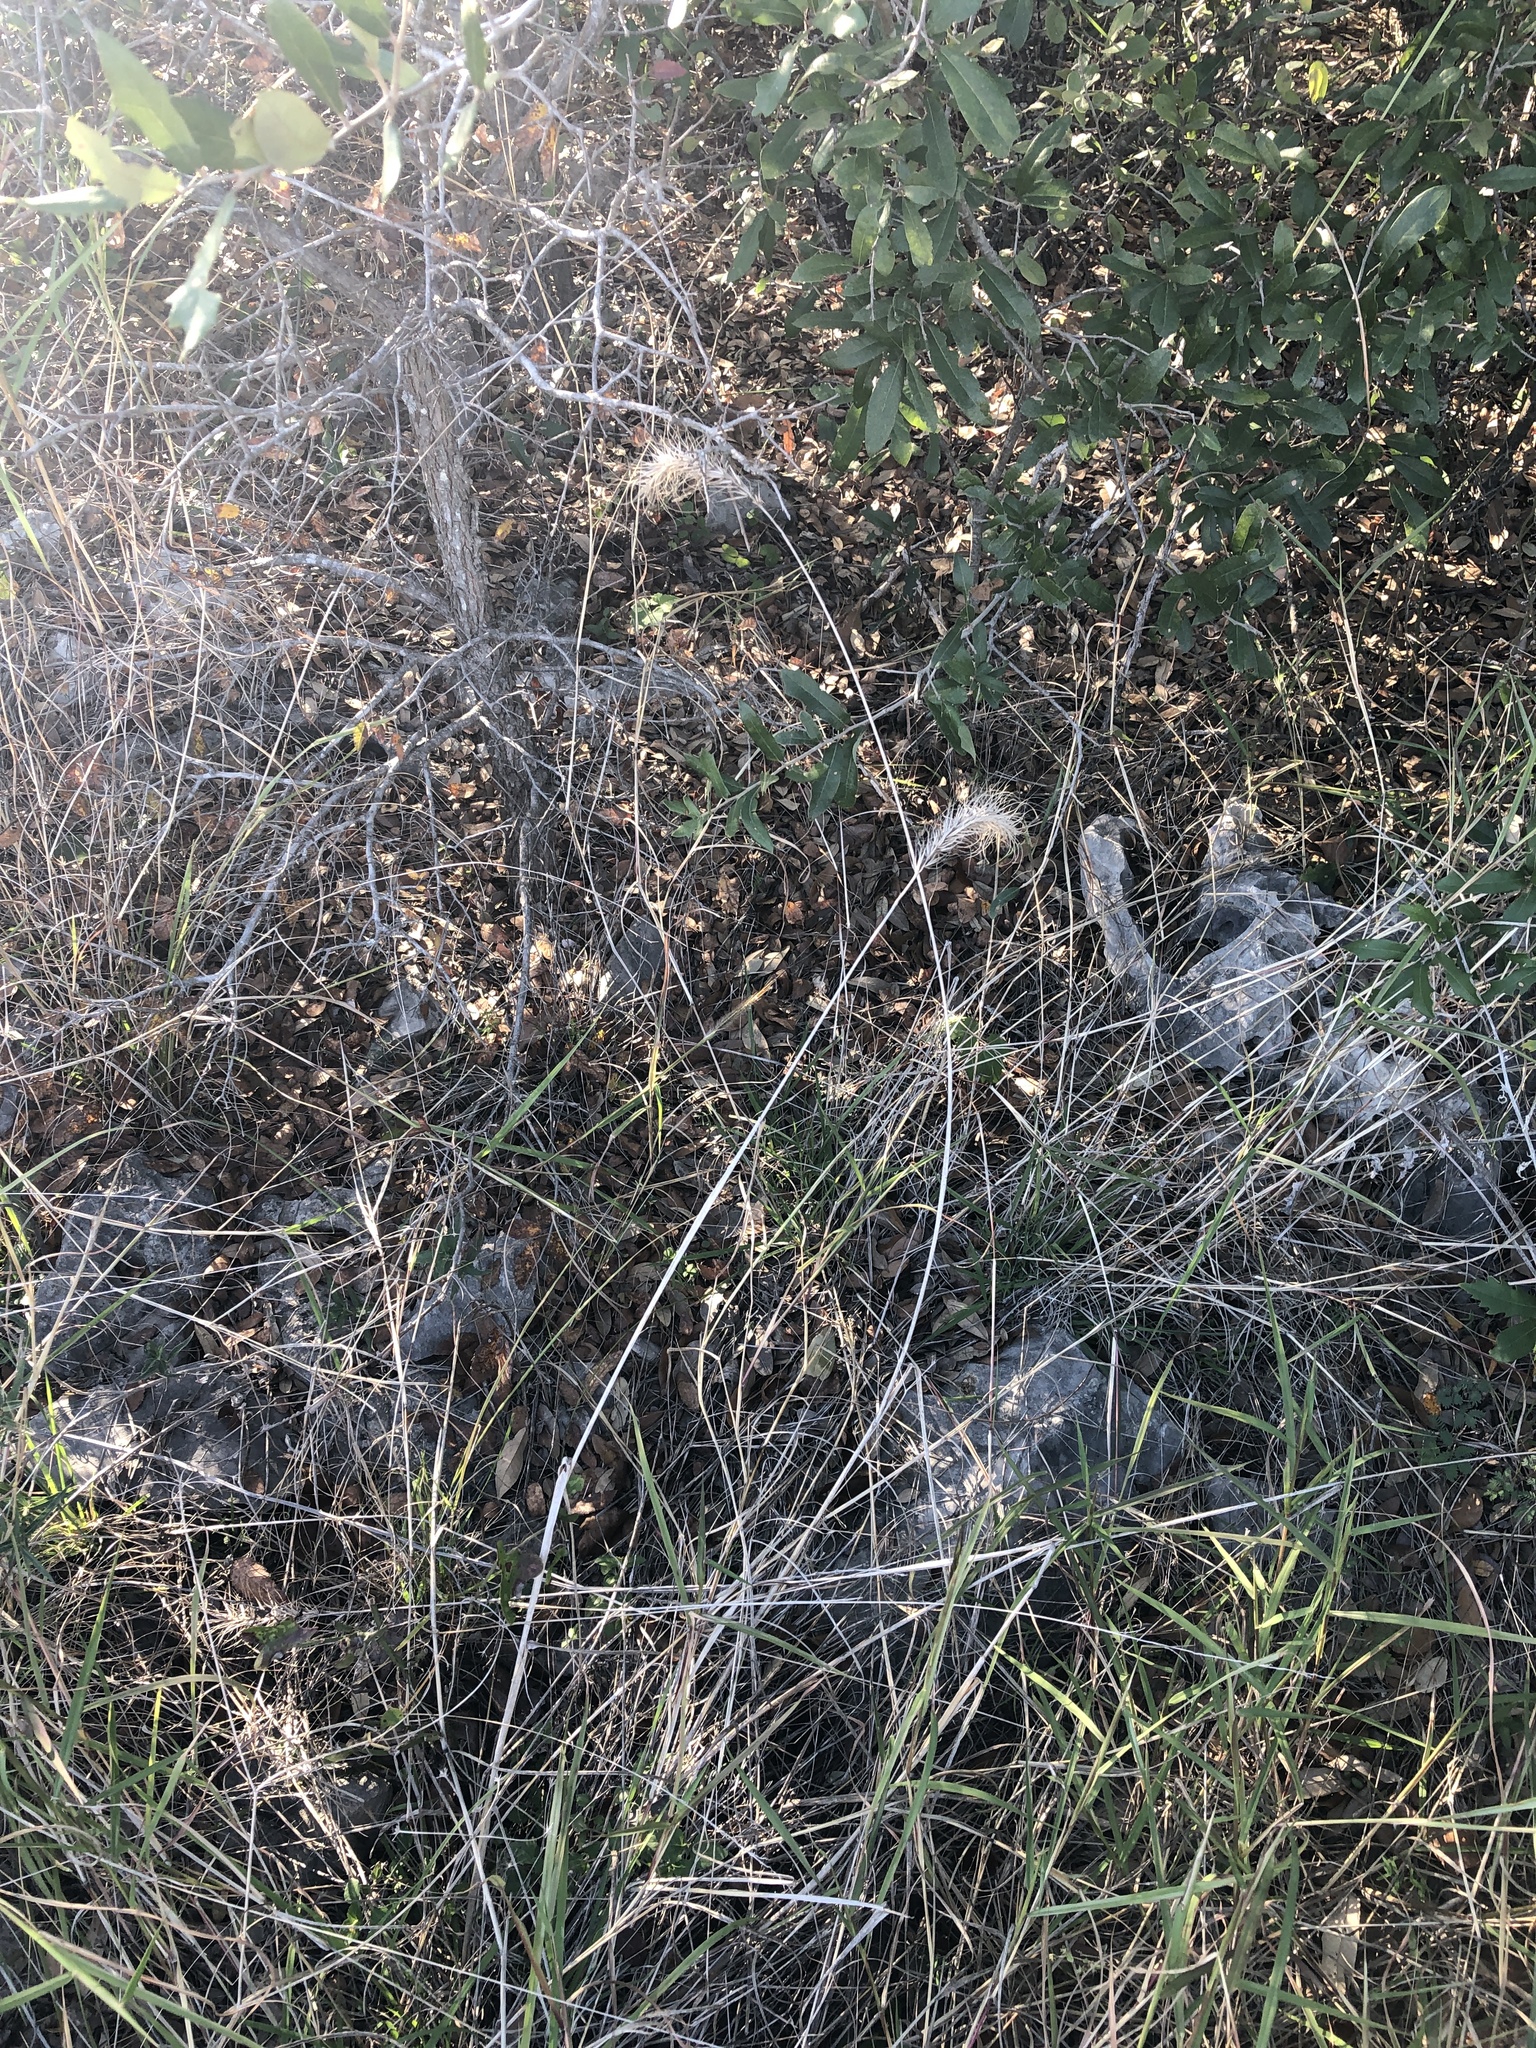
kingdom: Plantae
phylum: Tracheophyta
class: Liliopsida
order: Poales
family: Poaceae
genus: Elymus
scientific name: Elymus canadensis
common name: Canada wild rye
